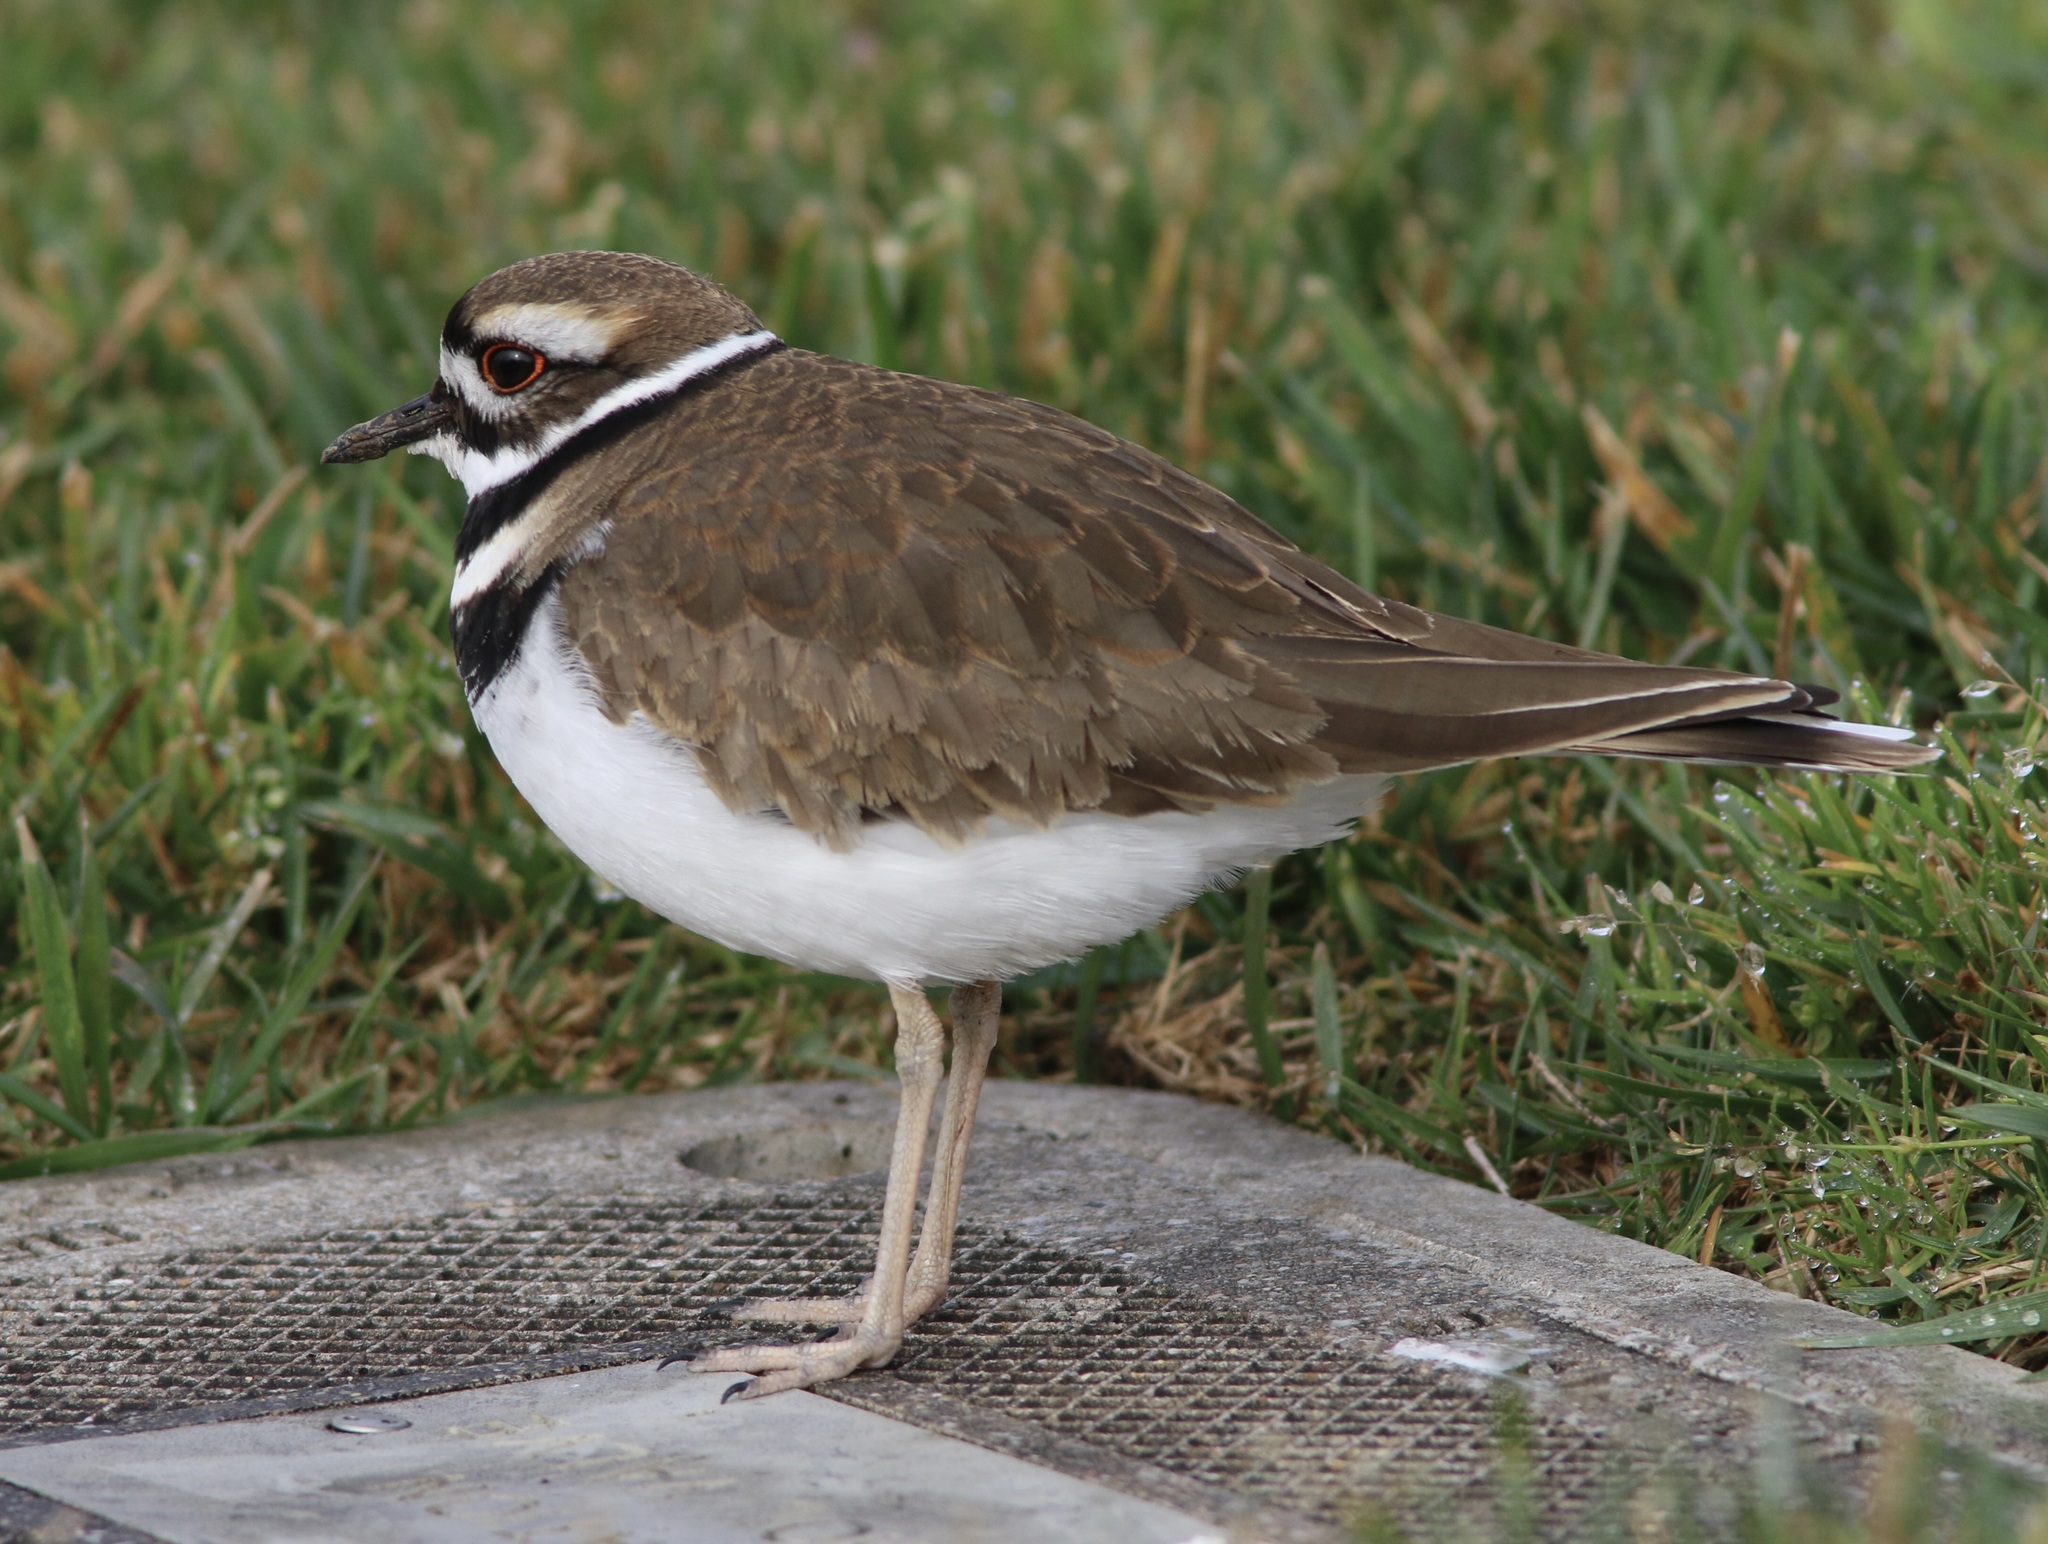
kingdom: Animalia
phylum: Chordata
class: Aves
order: Charadriiformes
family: Charadriidae
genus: Charadrius
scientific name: Charadrius vociferus
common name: Killdeer
